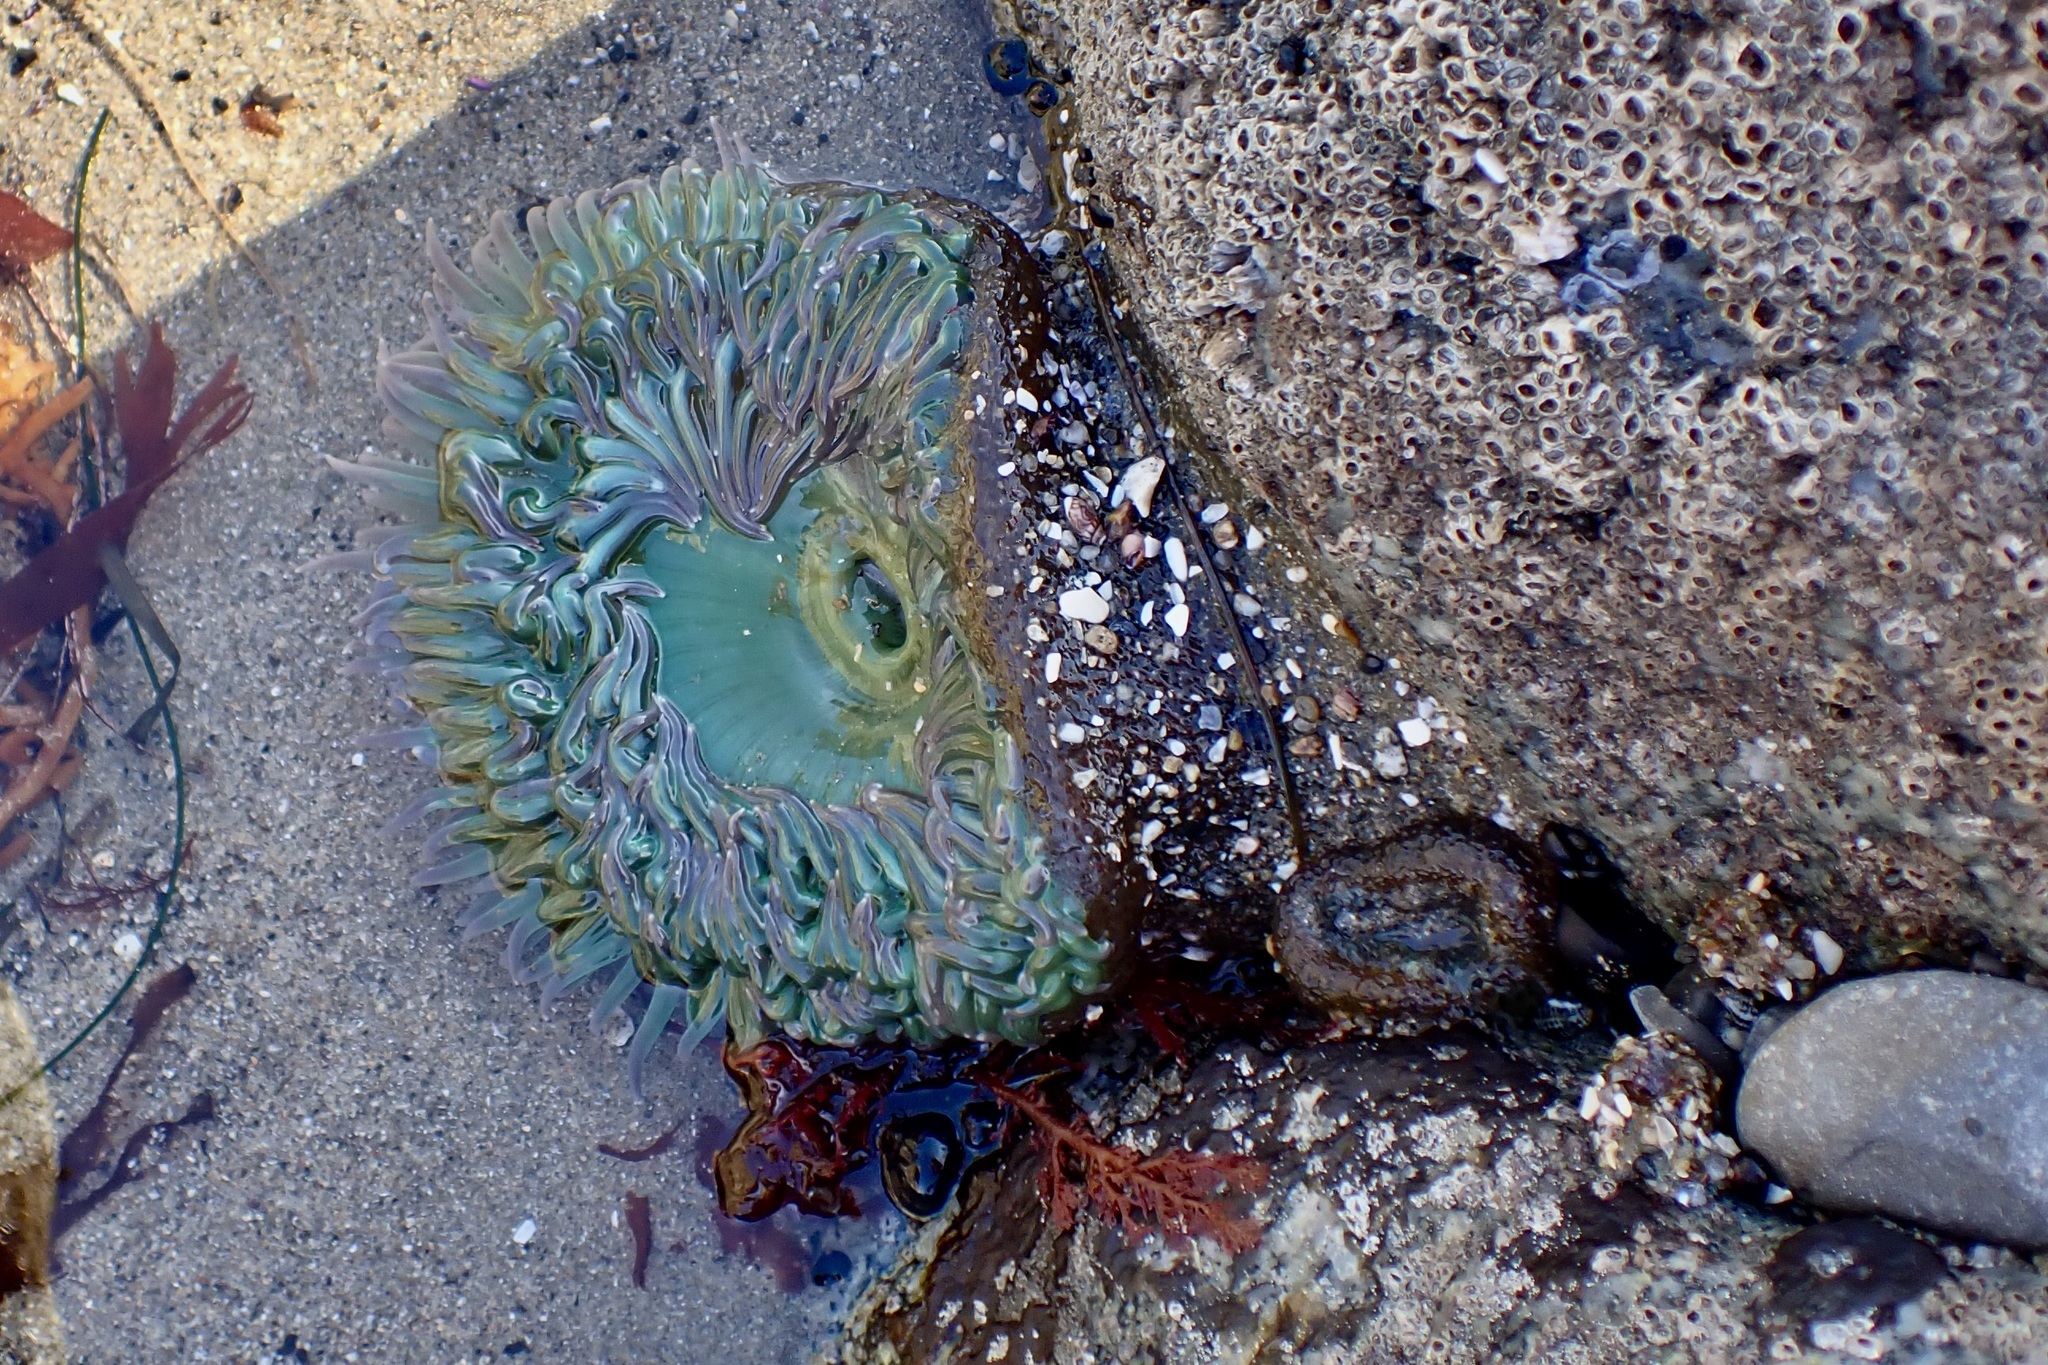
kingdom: Animalia
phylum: Cnidaria
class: Anthozoa
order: Actiniaria
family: Actiniidae
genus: Anthopleura
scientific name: Anthopleura xanthogrammica
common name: Giant green anemone
